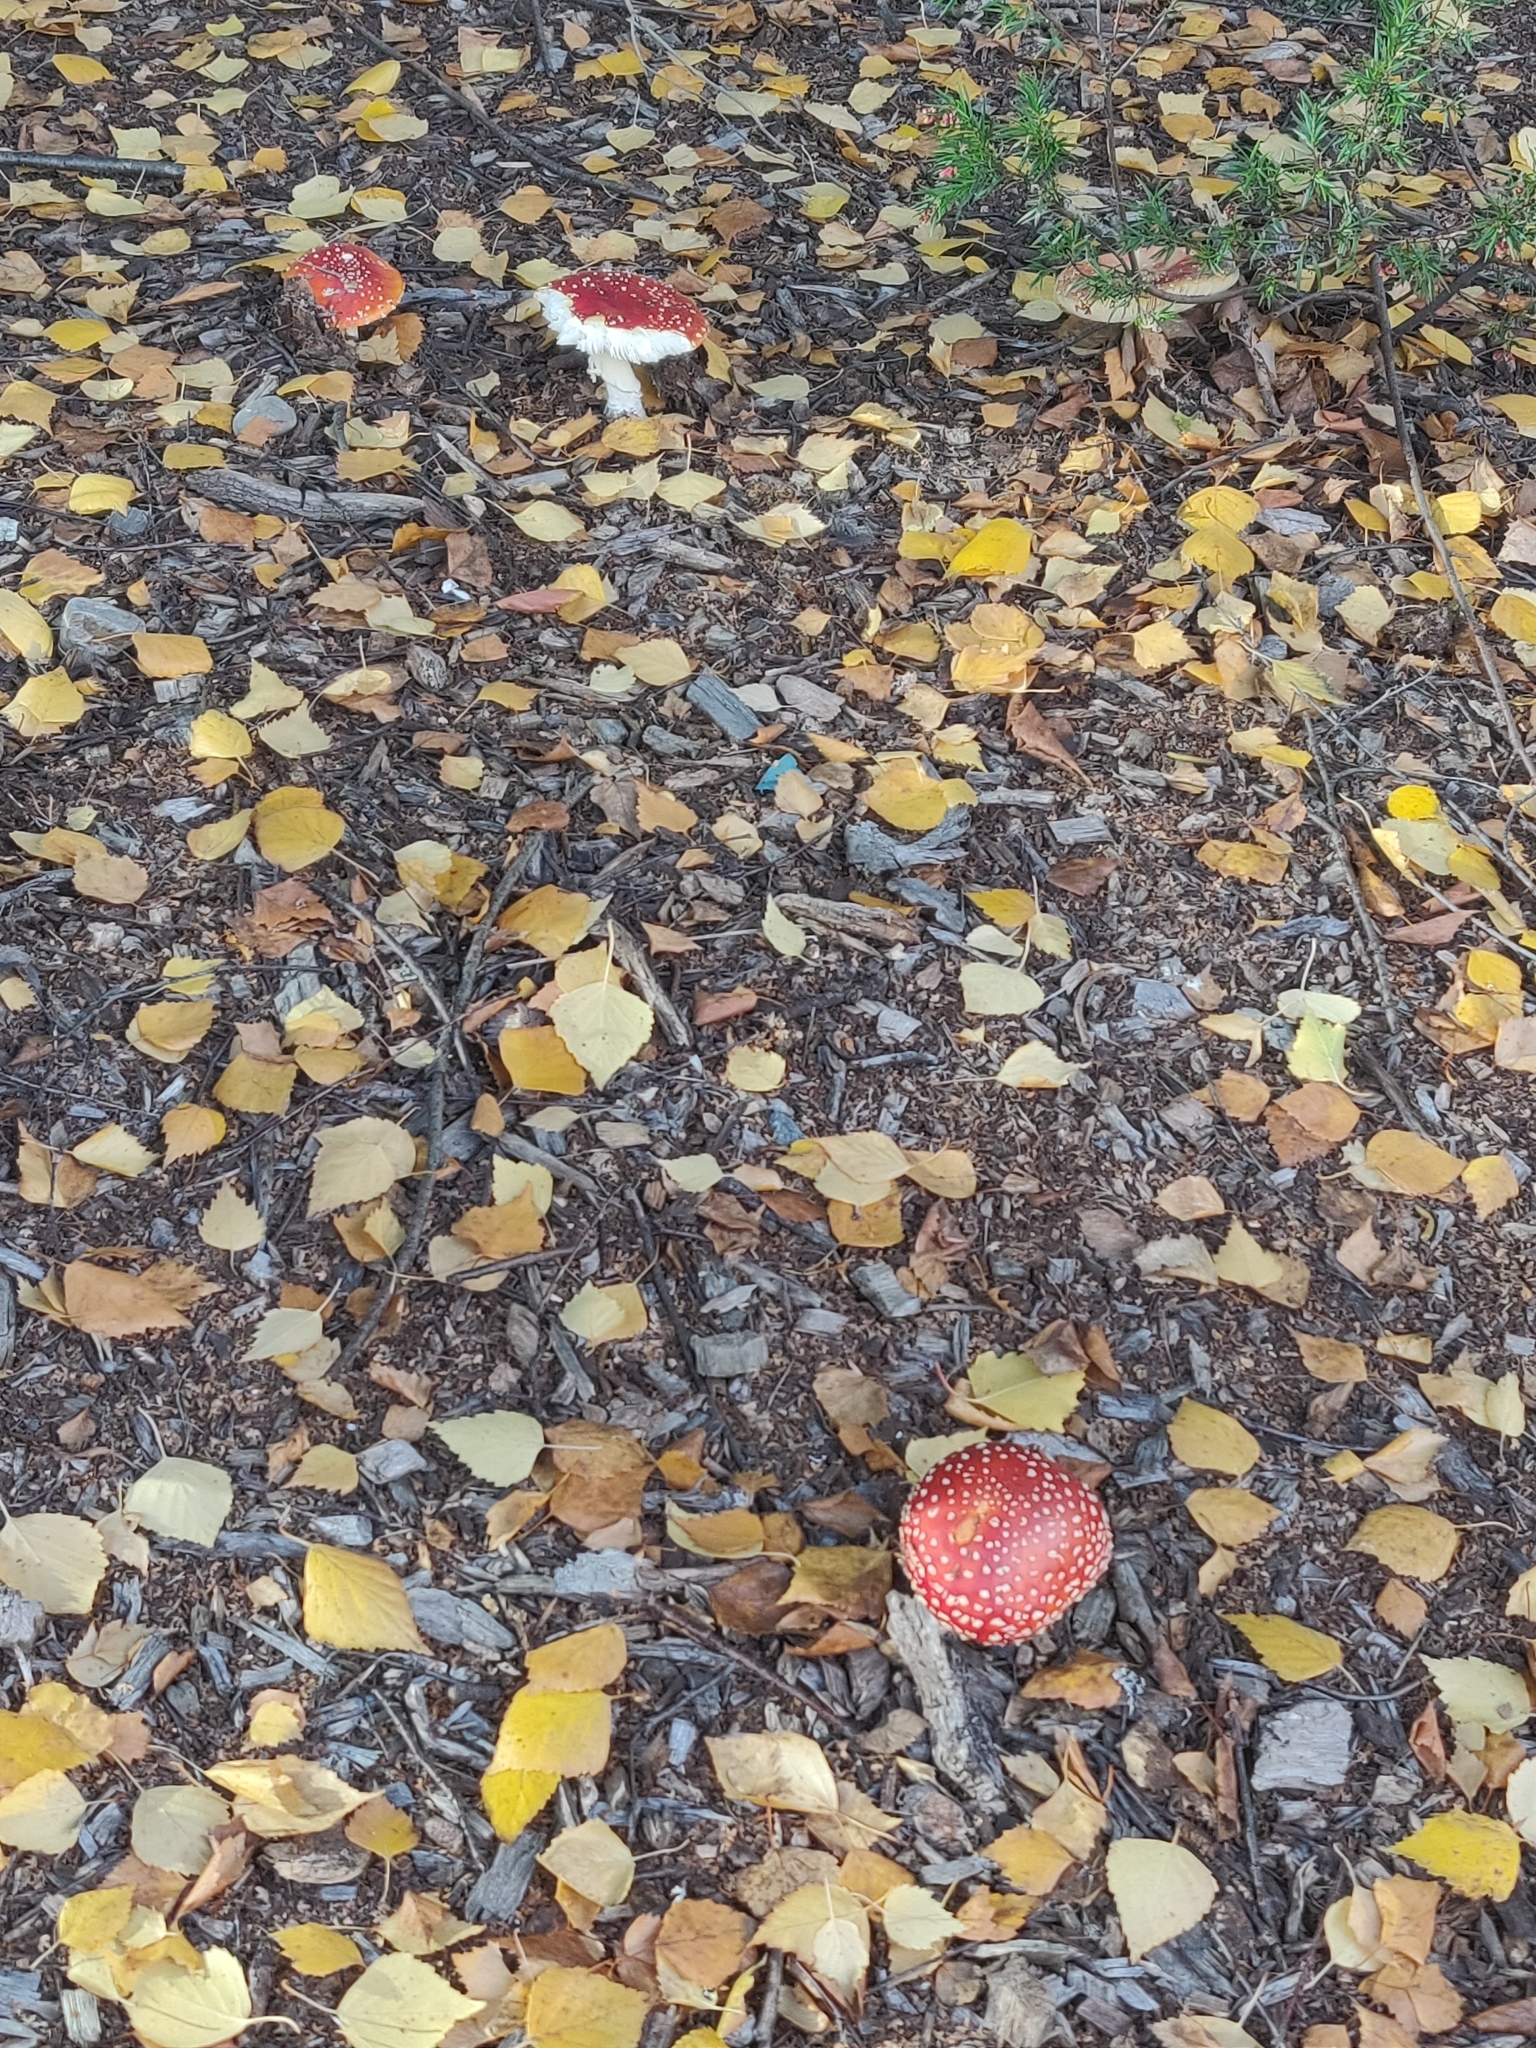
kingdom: Fungi
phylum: Basidiomycota
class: Agaricomycetes
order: Agaricales
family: Amanitaceae
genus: Amanita
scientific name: Amanita muscaria
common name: Fly agaric
